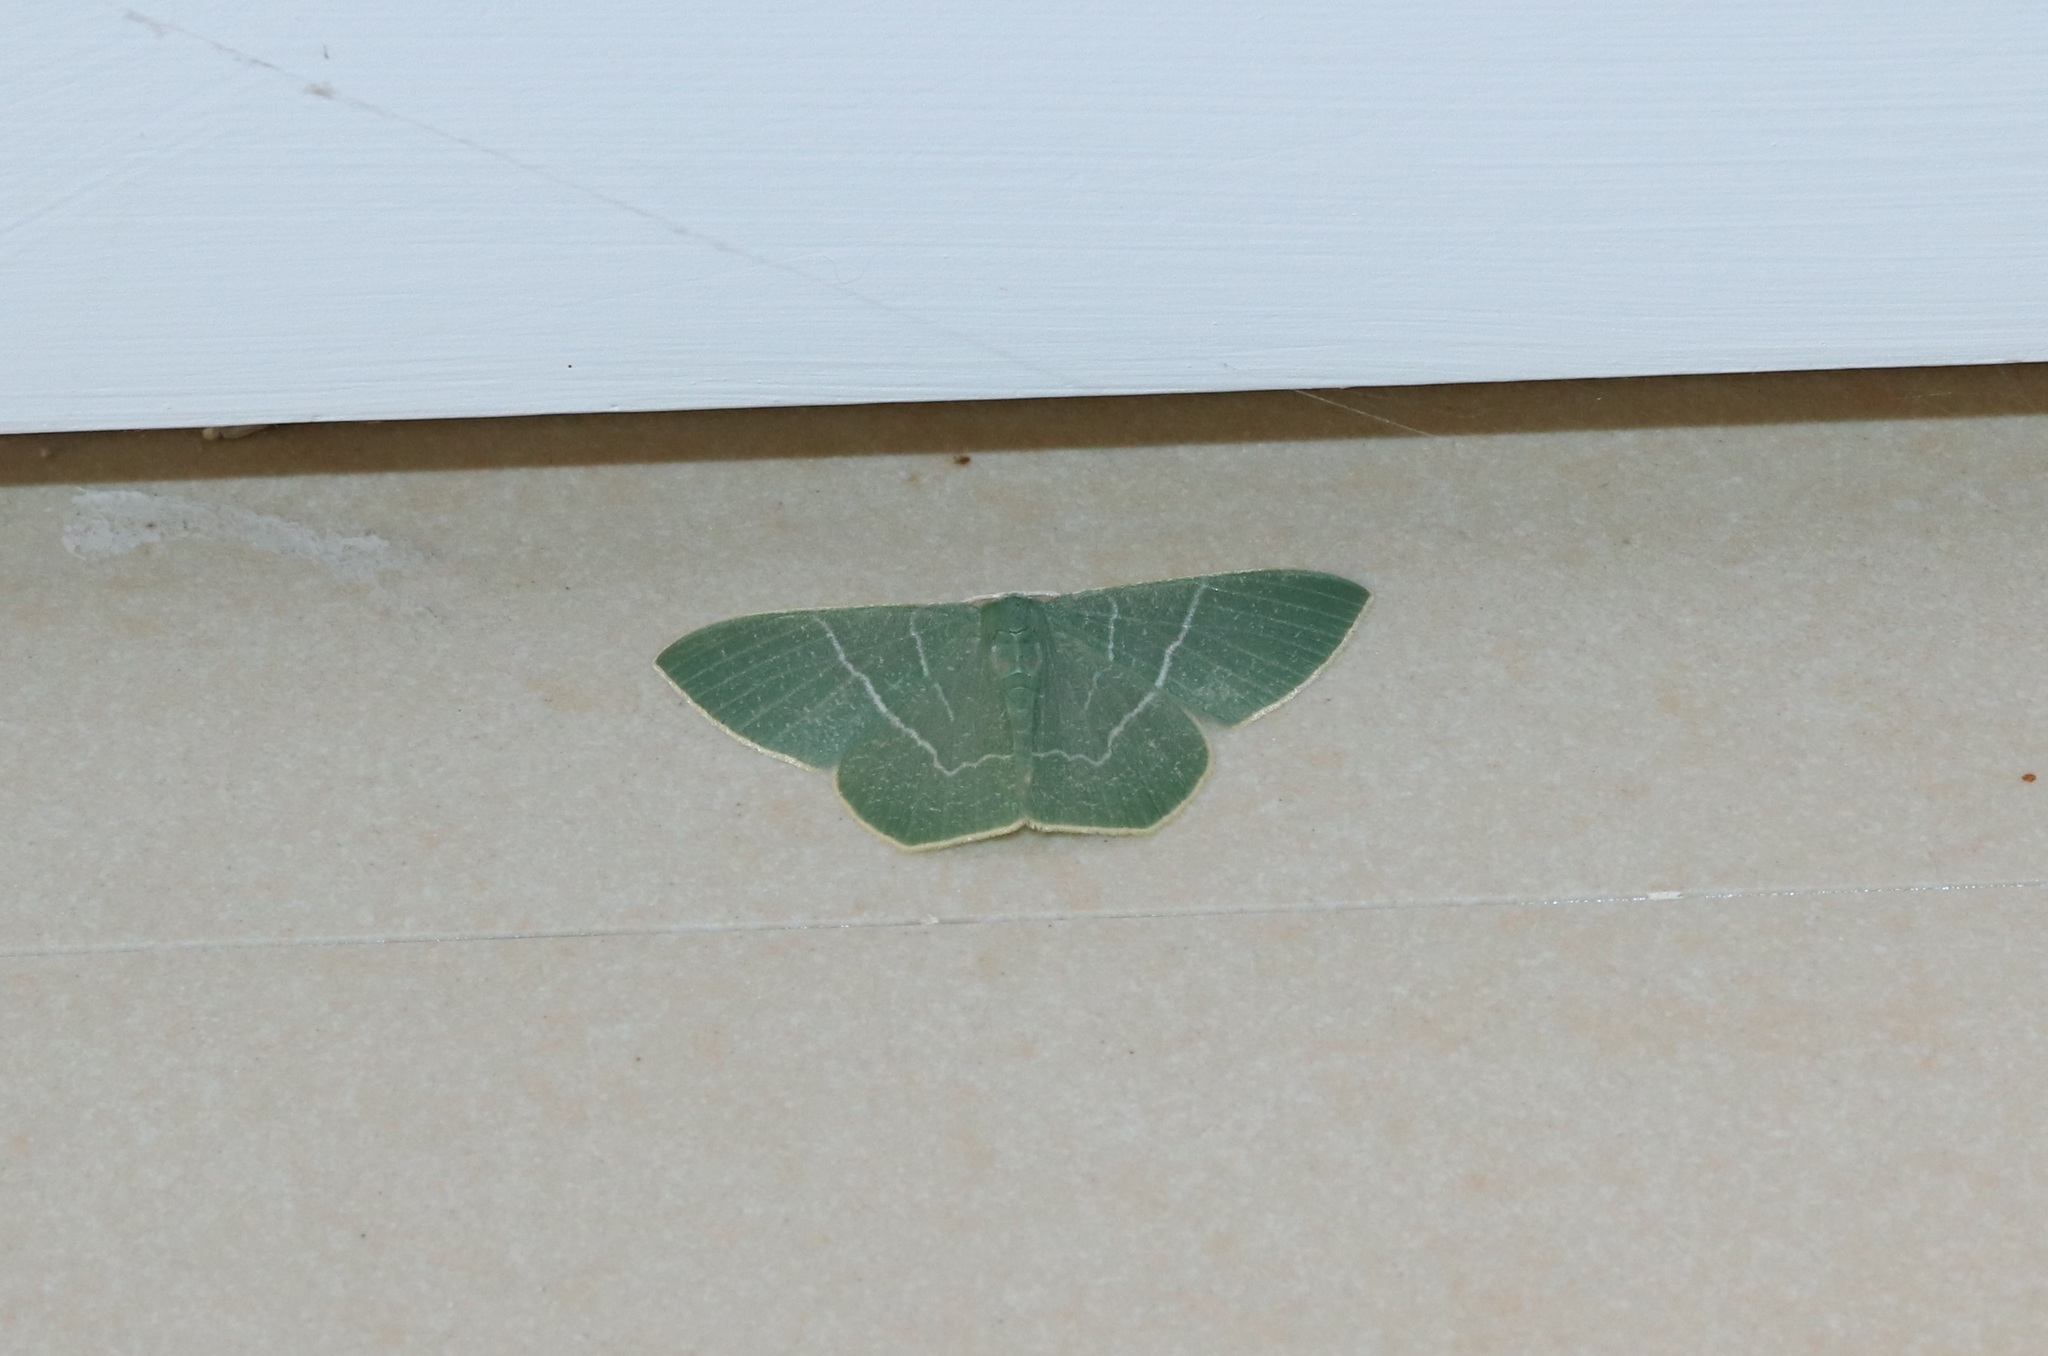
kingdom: Animalia
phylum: Arthropoda
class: Insecta
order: Lepidoptera
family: Geometridae
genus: Pelagodes
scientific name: Pelagodes subquadraria
